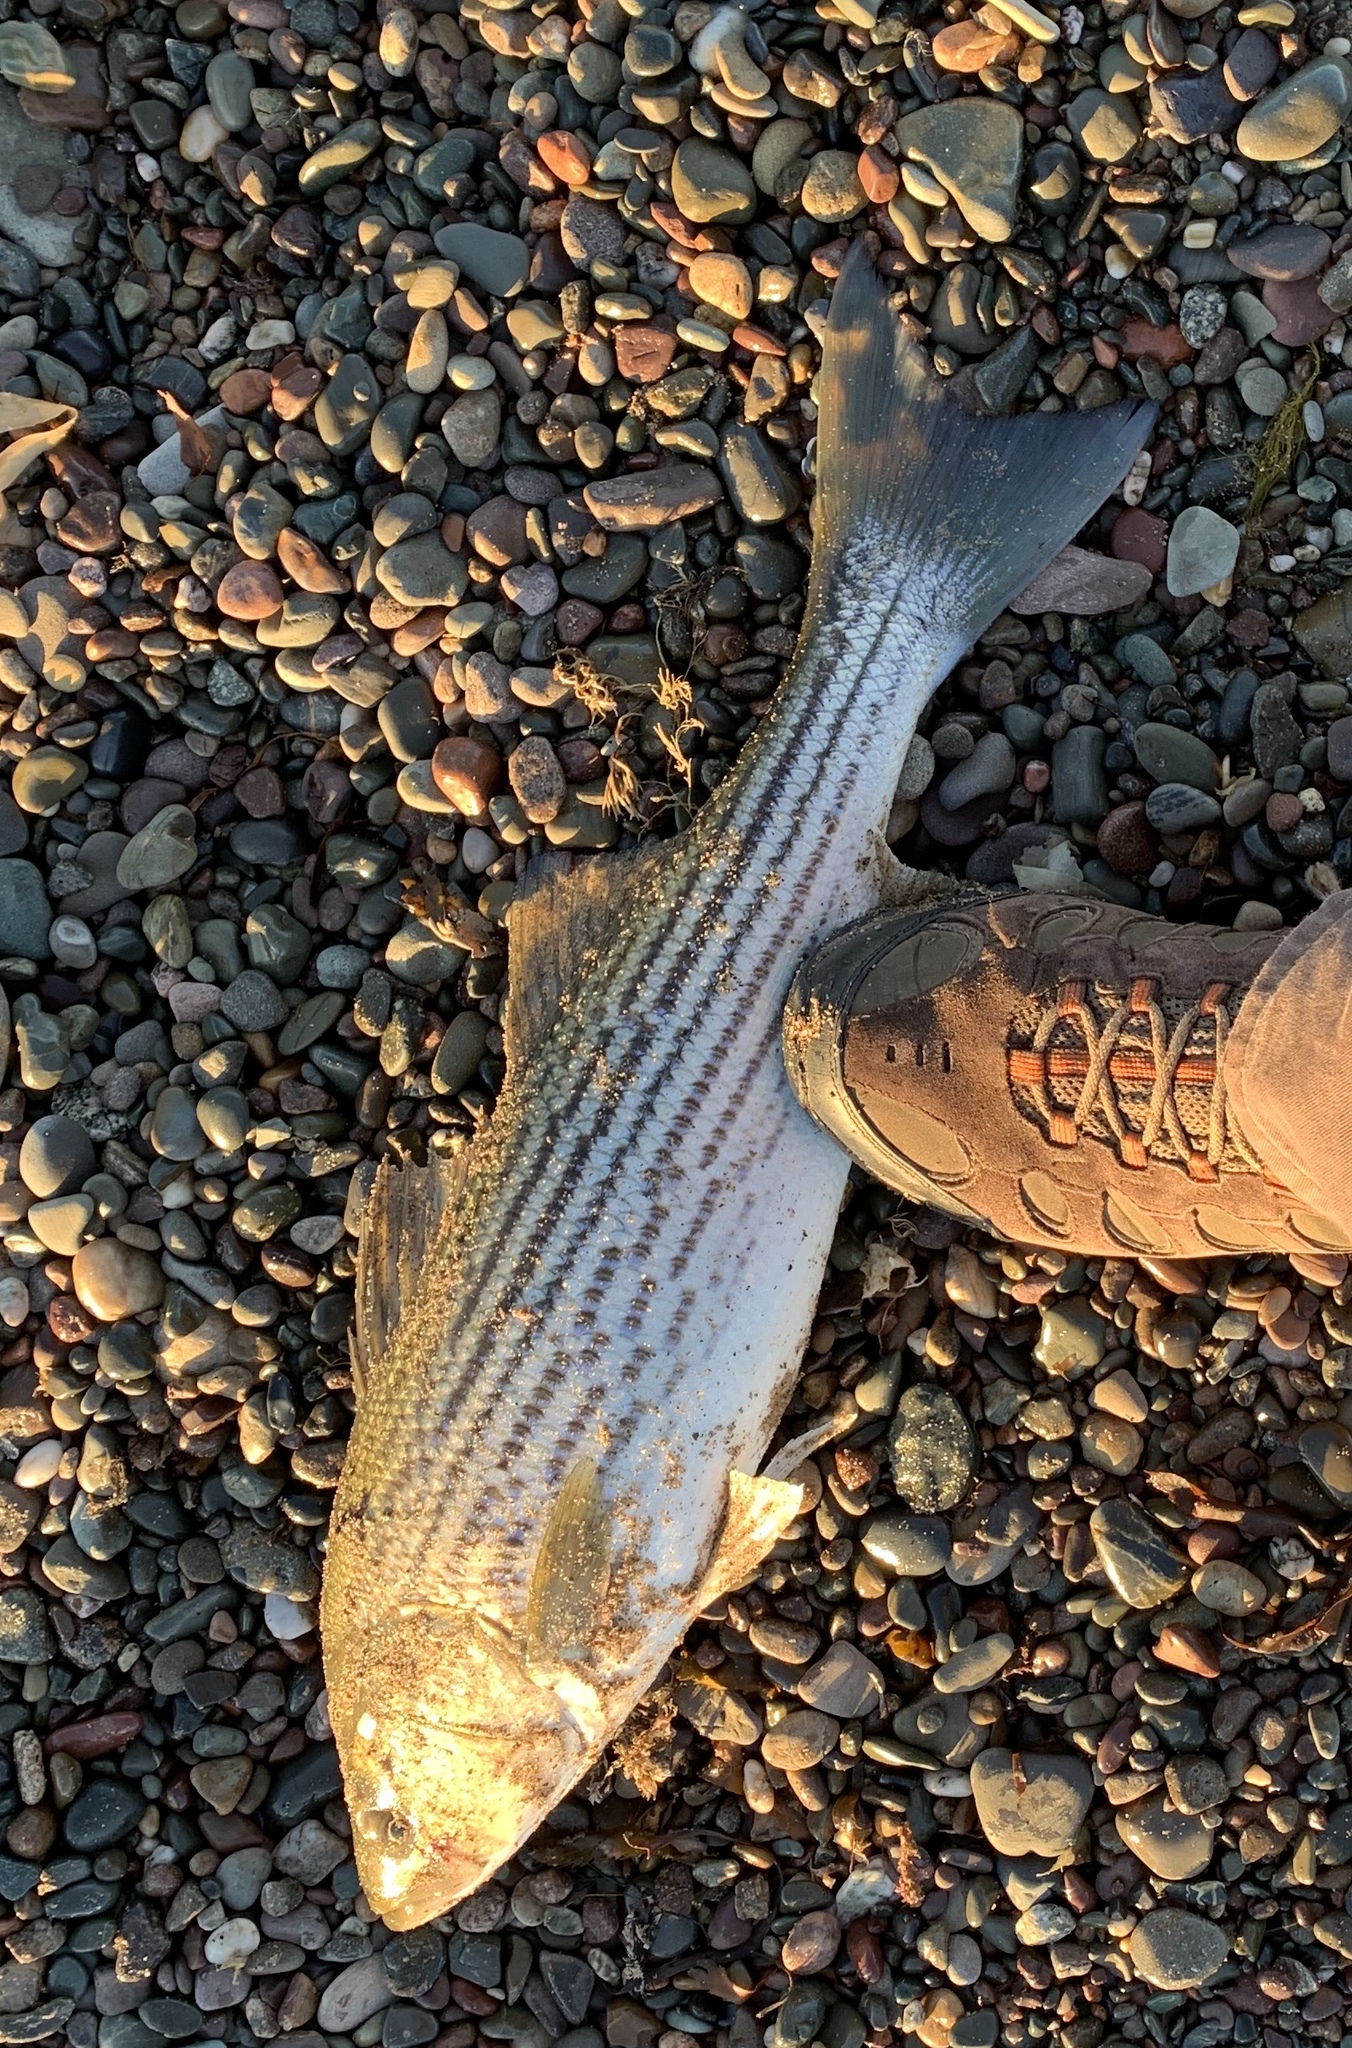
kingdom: Animalia
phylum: Chordata
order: Perciformes
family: Moronidae
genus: Morone
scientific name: Morone saxatilis
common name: Striped bass
